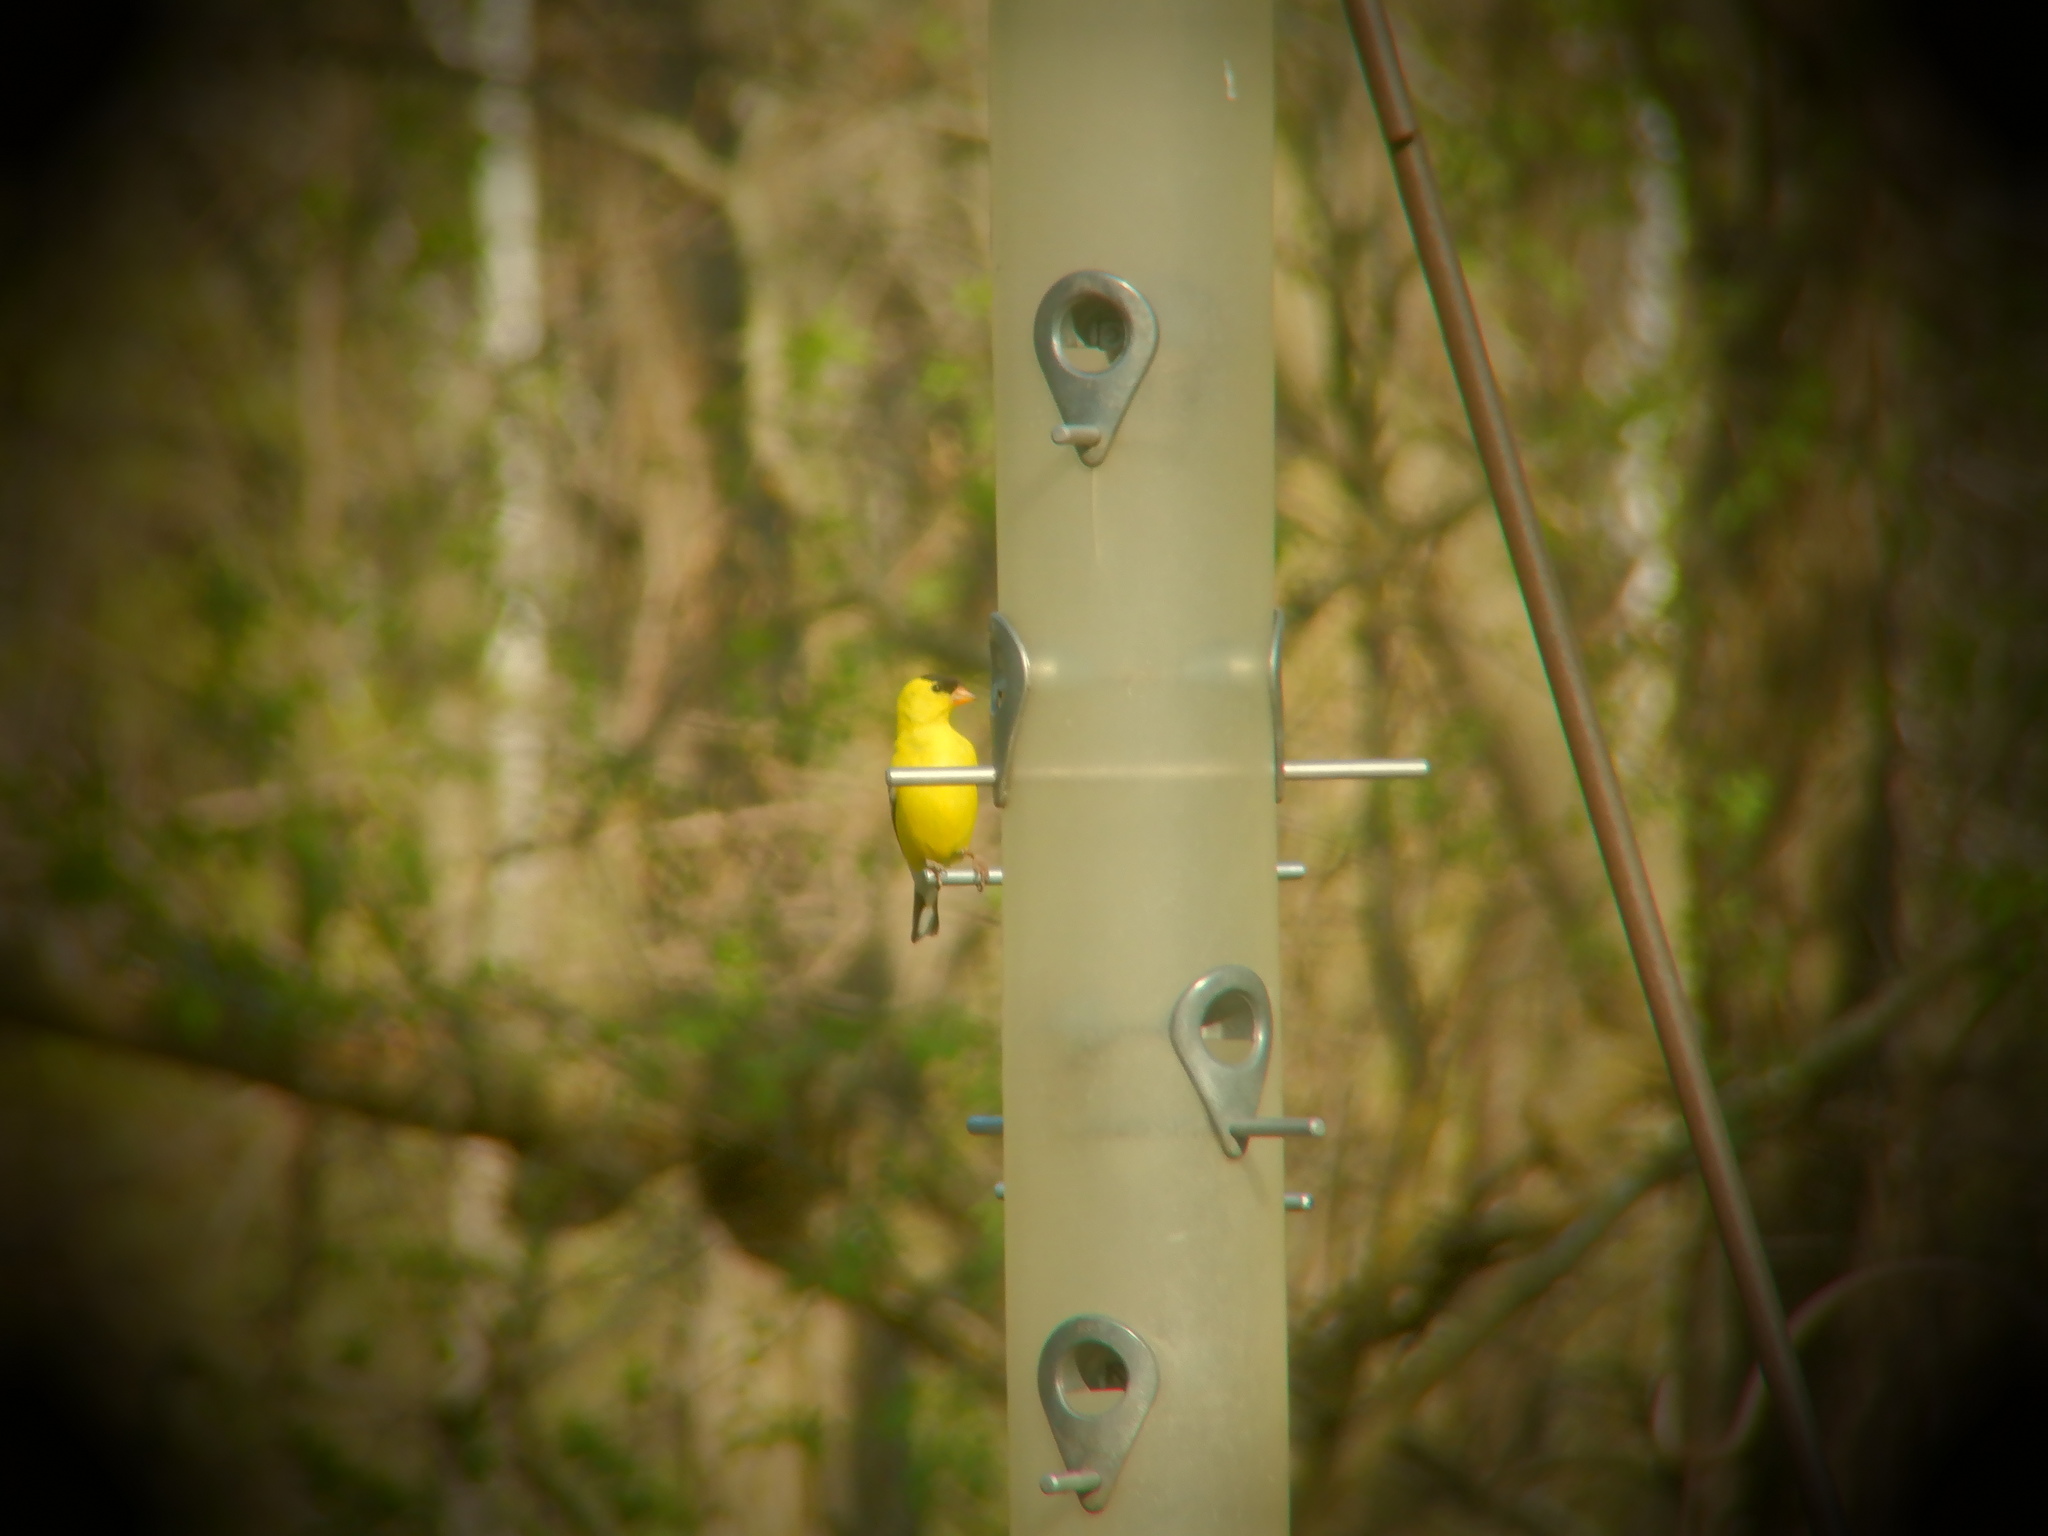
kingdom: Animalia
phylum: Chordata
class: Aves
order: Passeriformes
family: Fringillidae
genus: Spinus
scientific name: Spinus tristis
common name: American goldfinch
